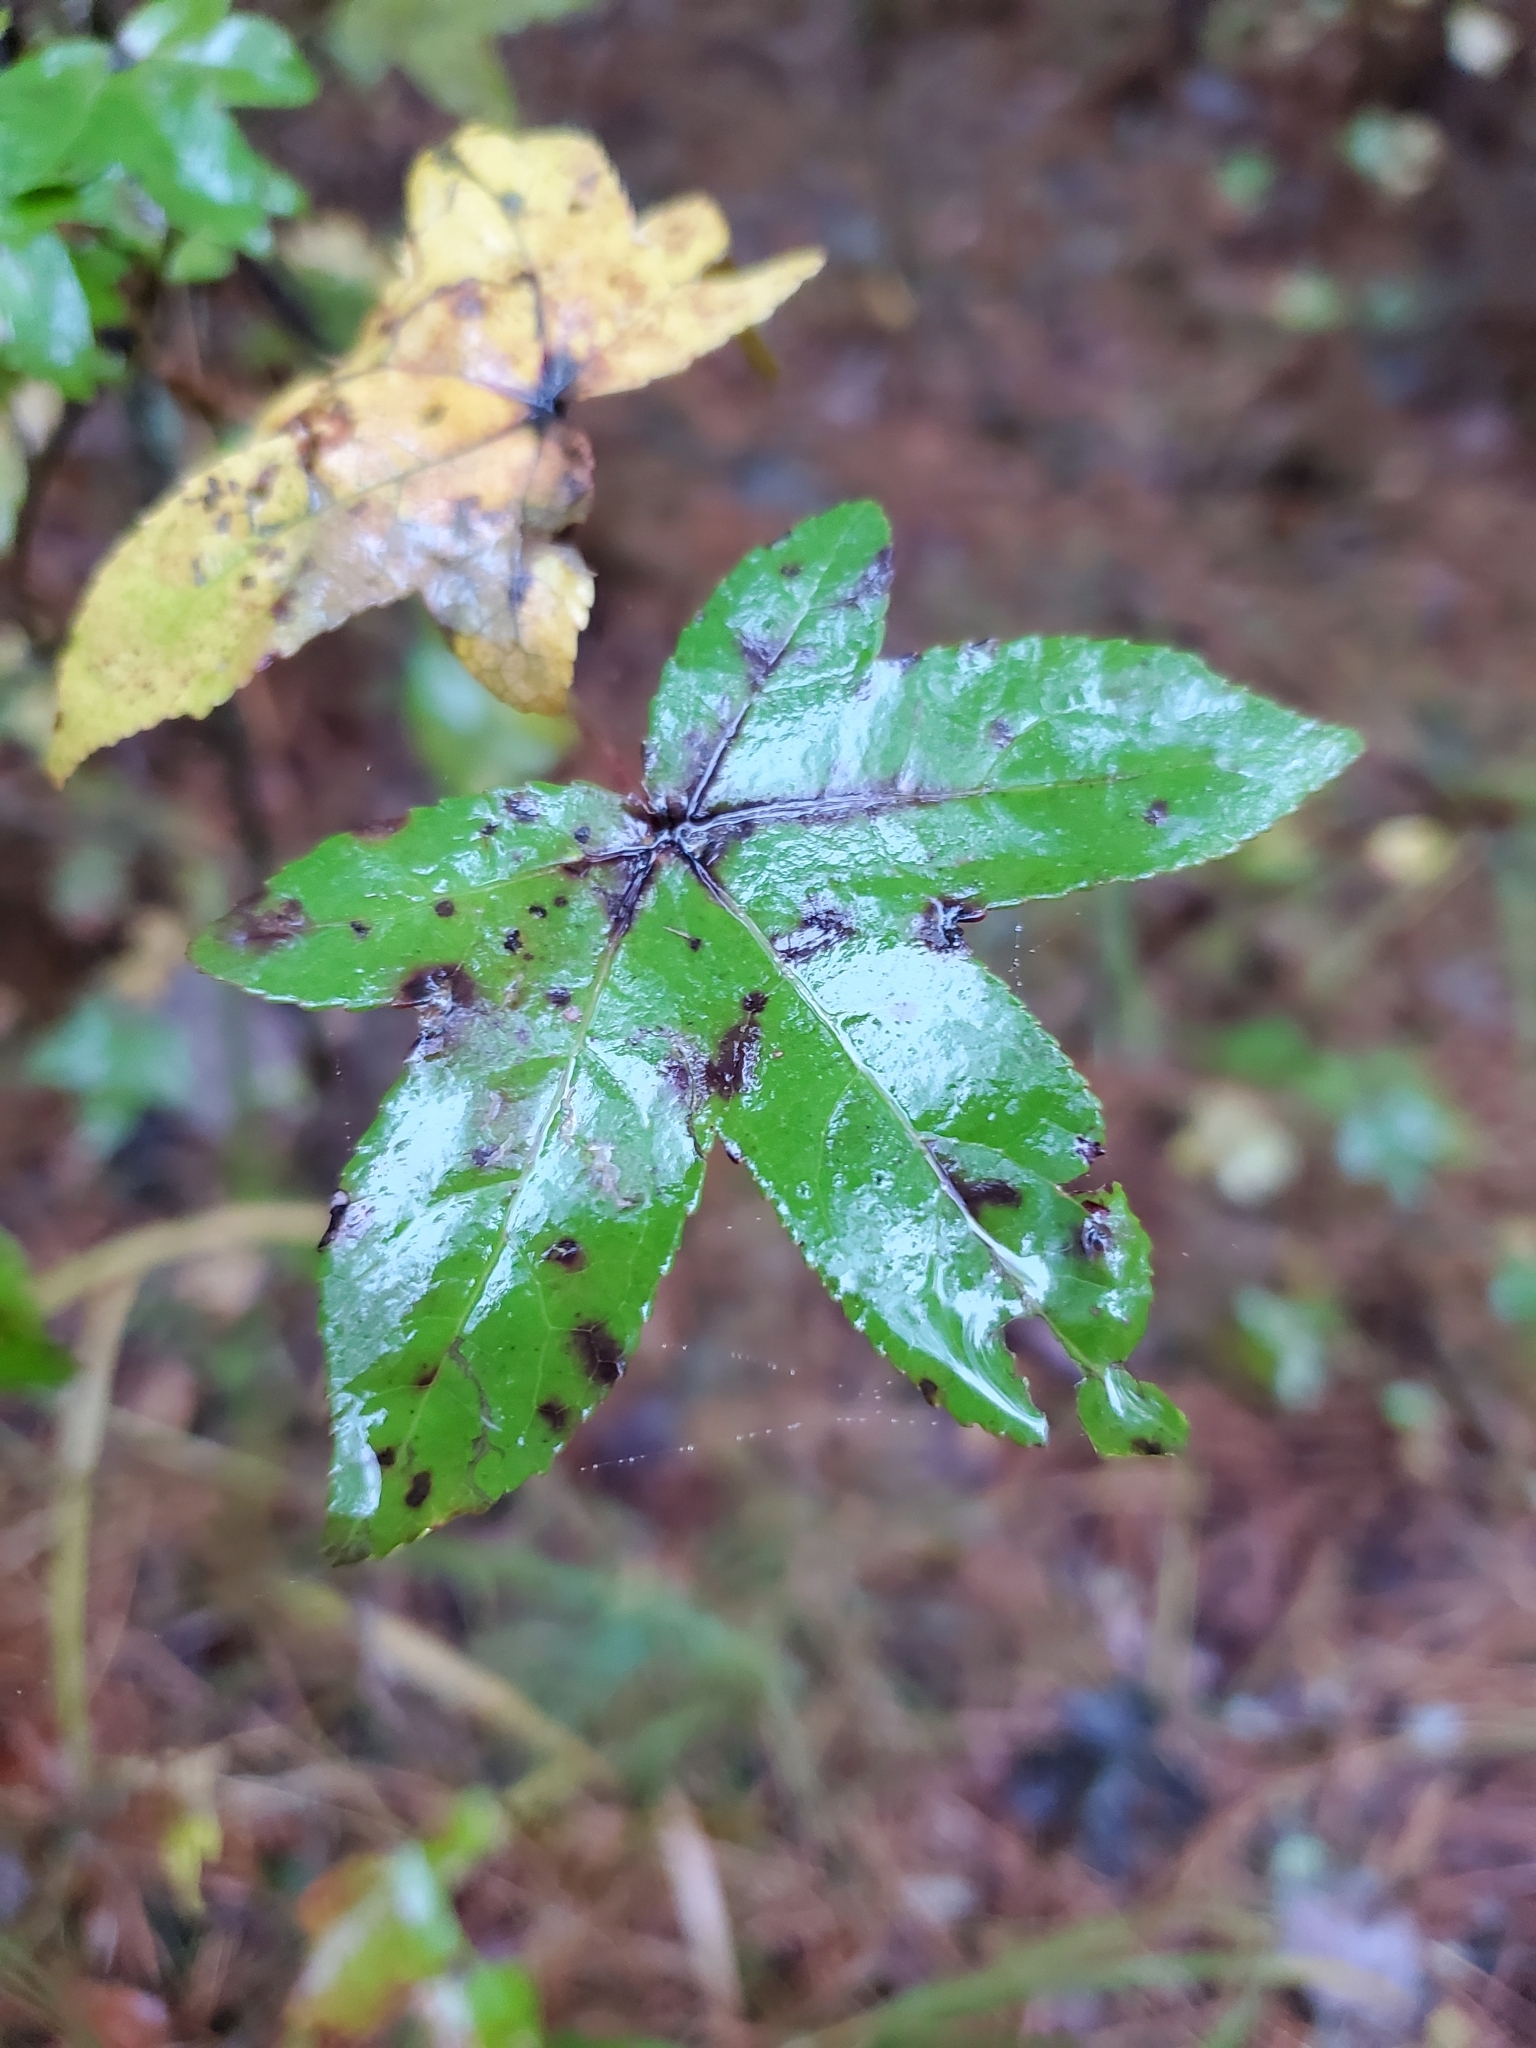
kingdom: Plantae
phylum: Tracheophyta
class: Magnoliopsida
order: Saxifragales
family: Altingiaceae
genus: Liquidambar
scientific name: Liquidambar styraciflua
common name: Sweet gum
